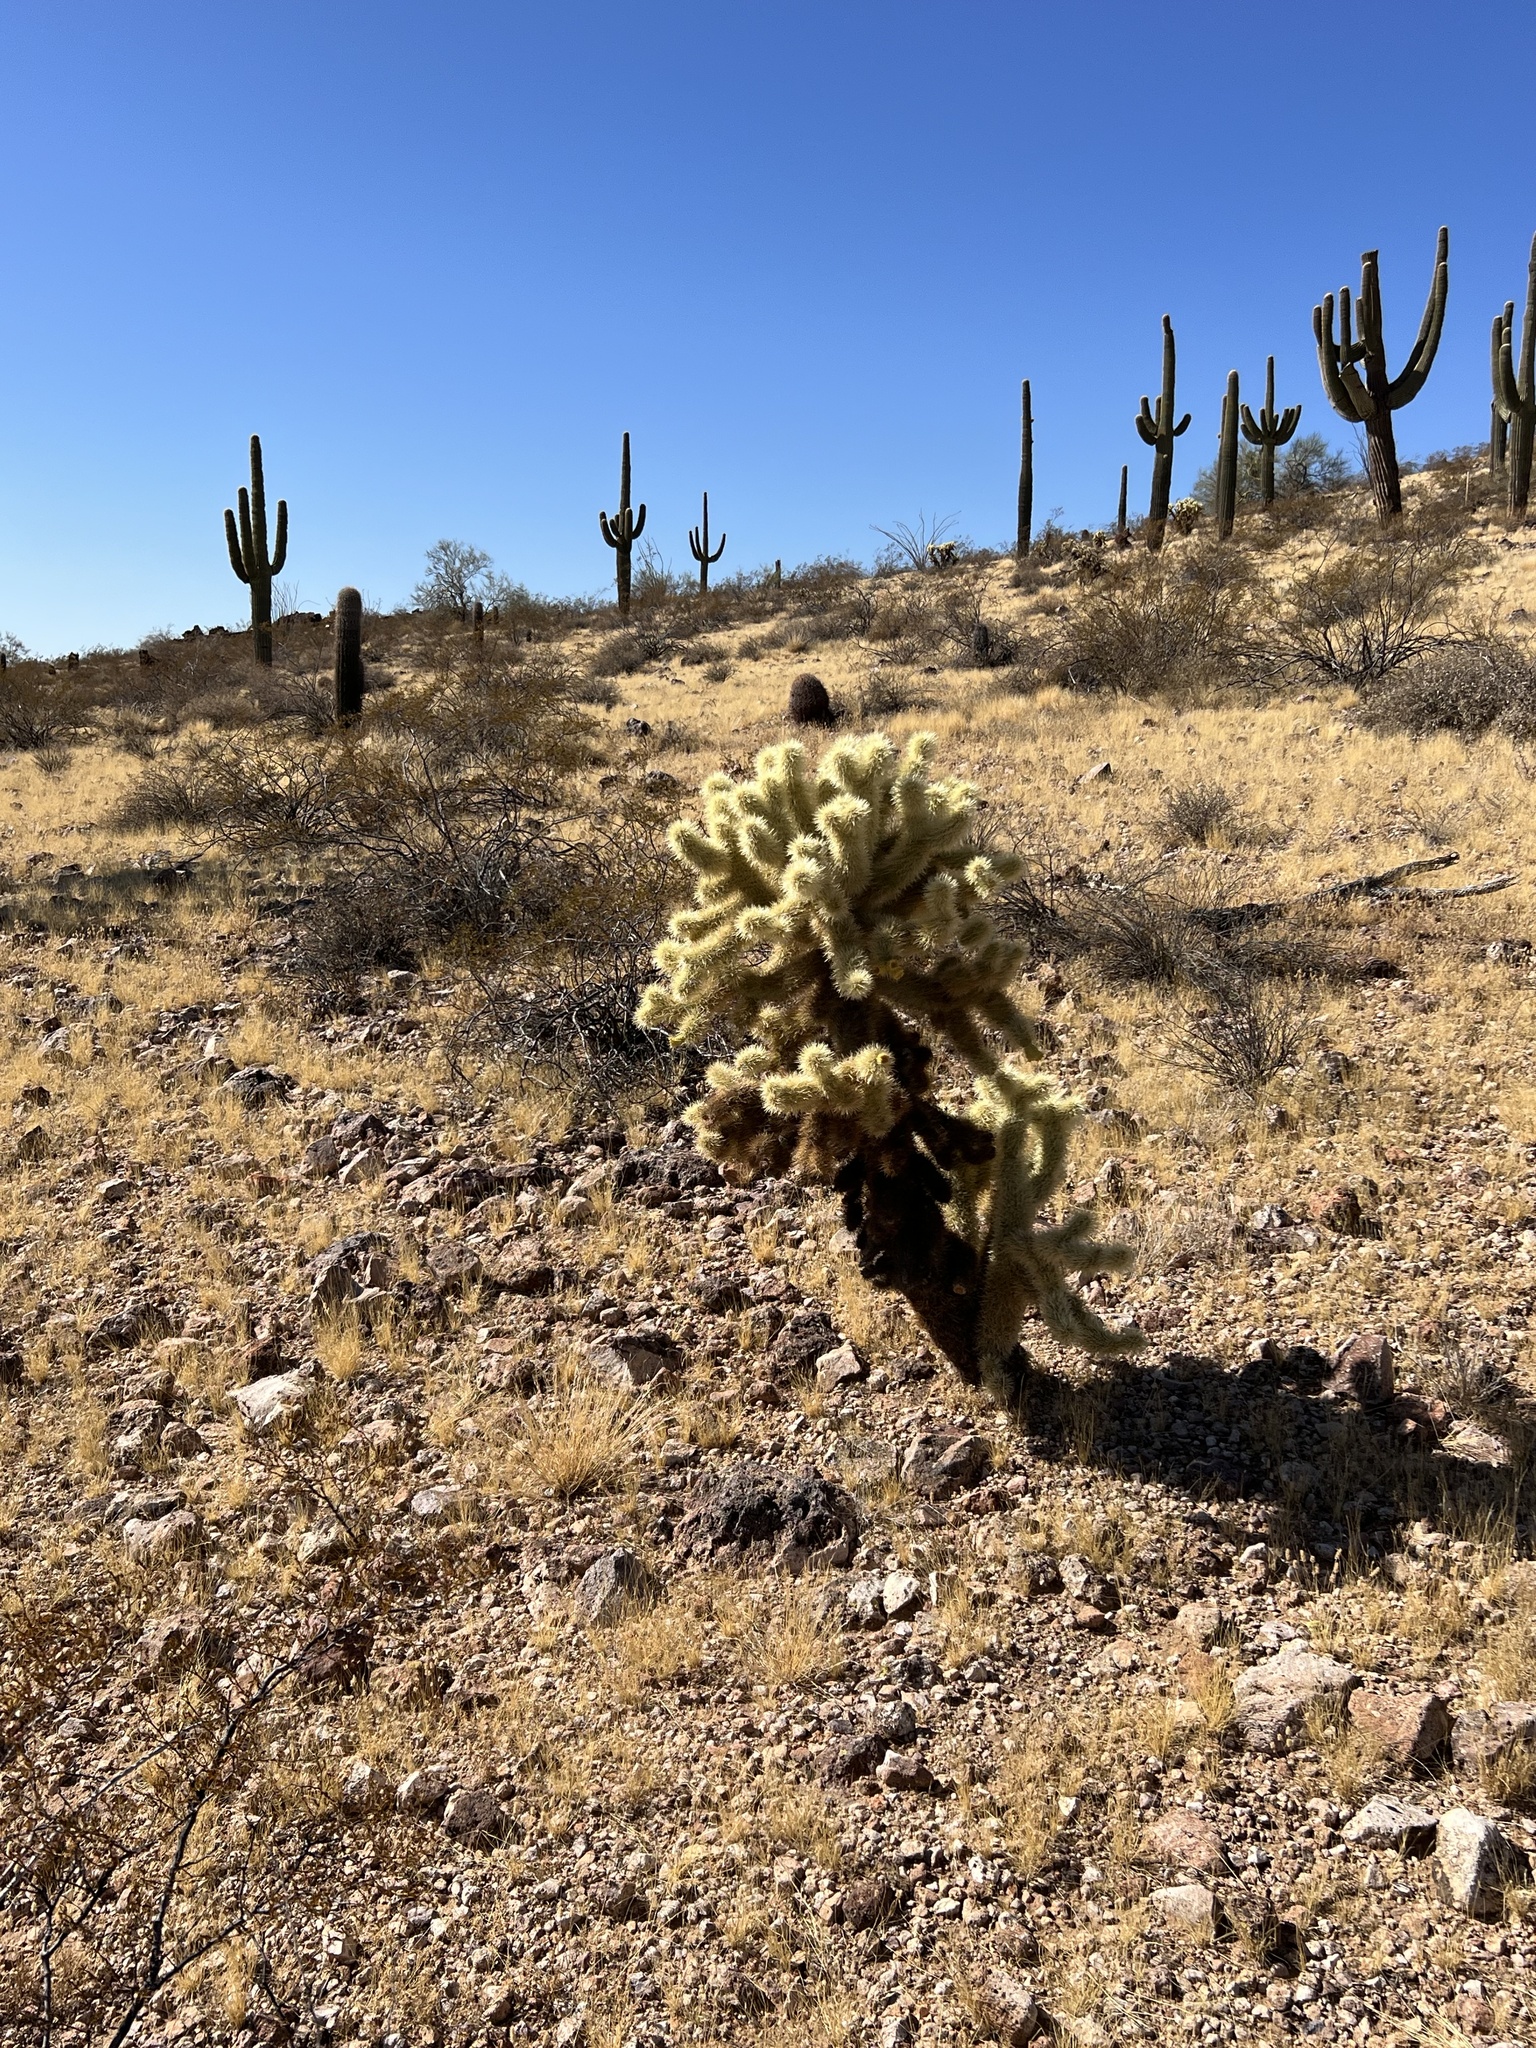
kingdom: Plantae
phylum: Tracheophyta
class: Magnoliopsida
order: Caryophyllales
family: Cactaceae
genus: Cylindropuntia
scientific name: Cylindropuntia fosbergii
